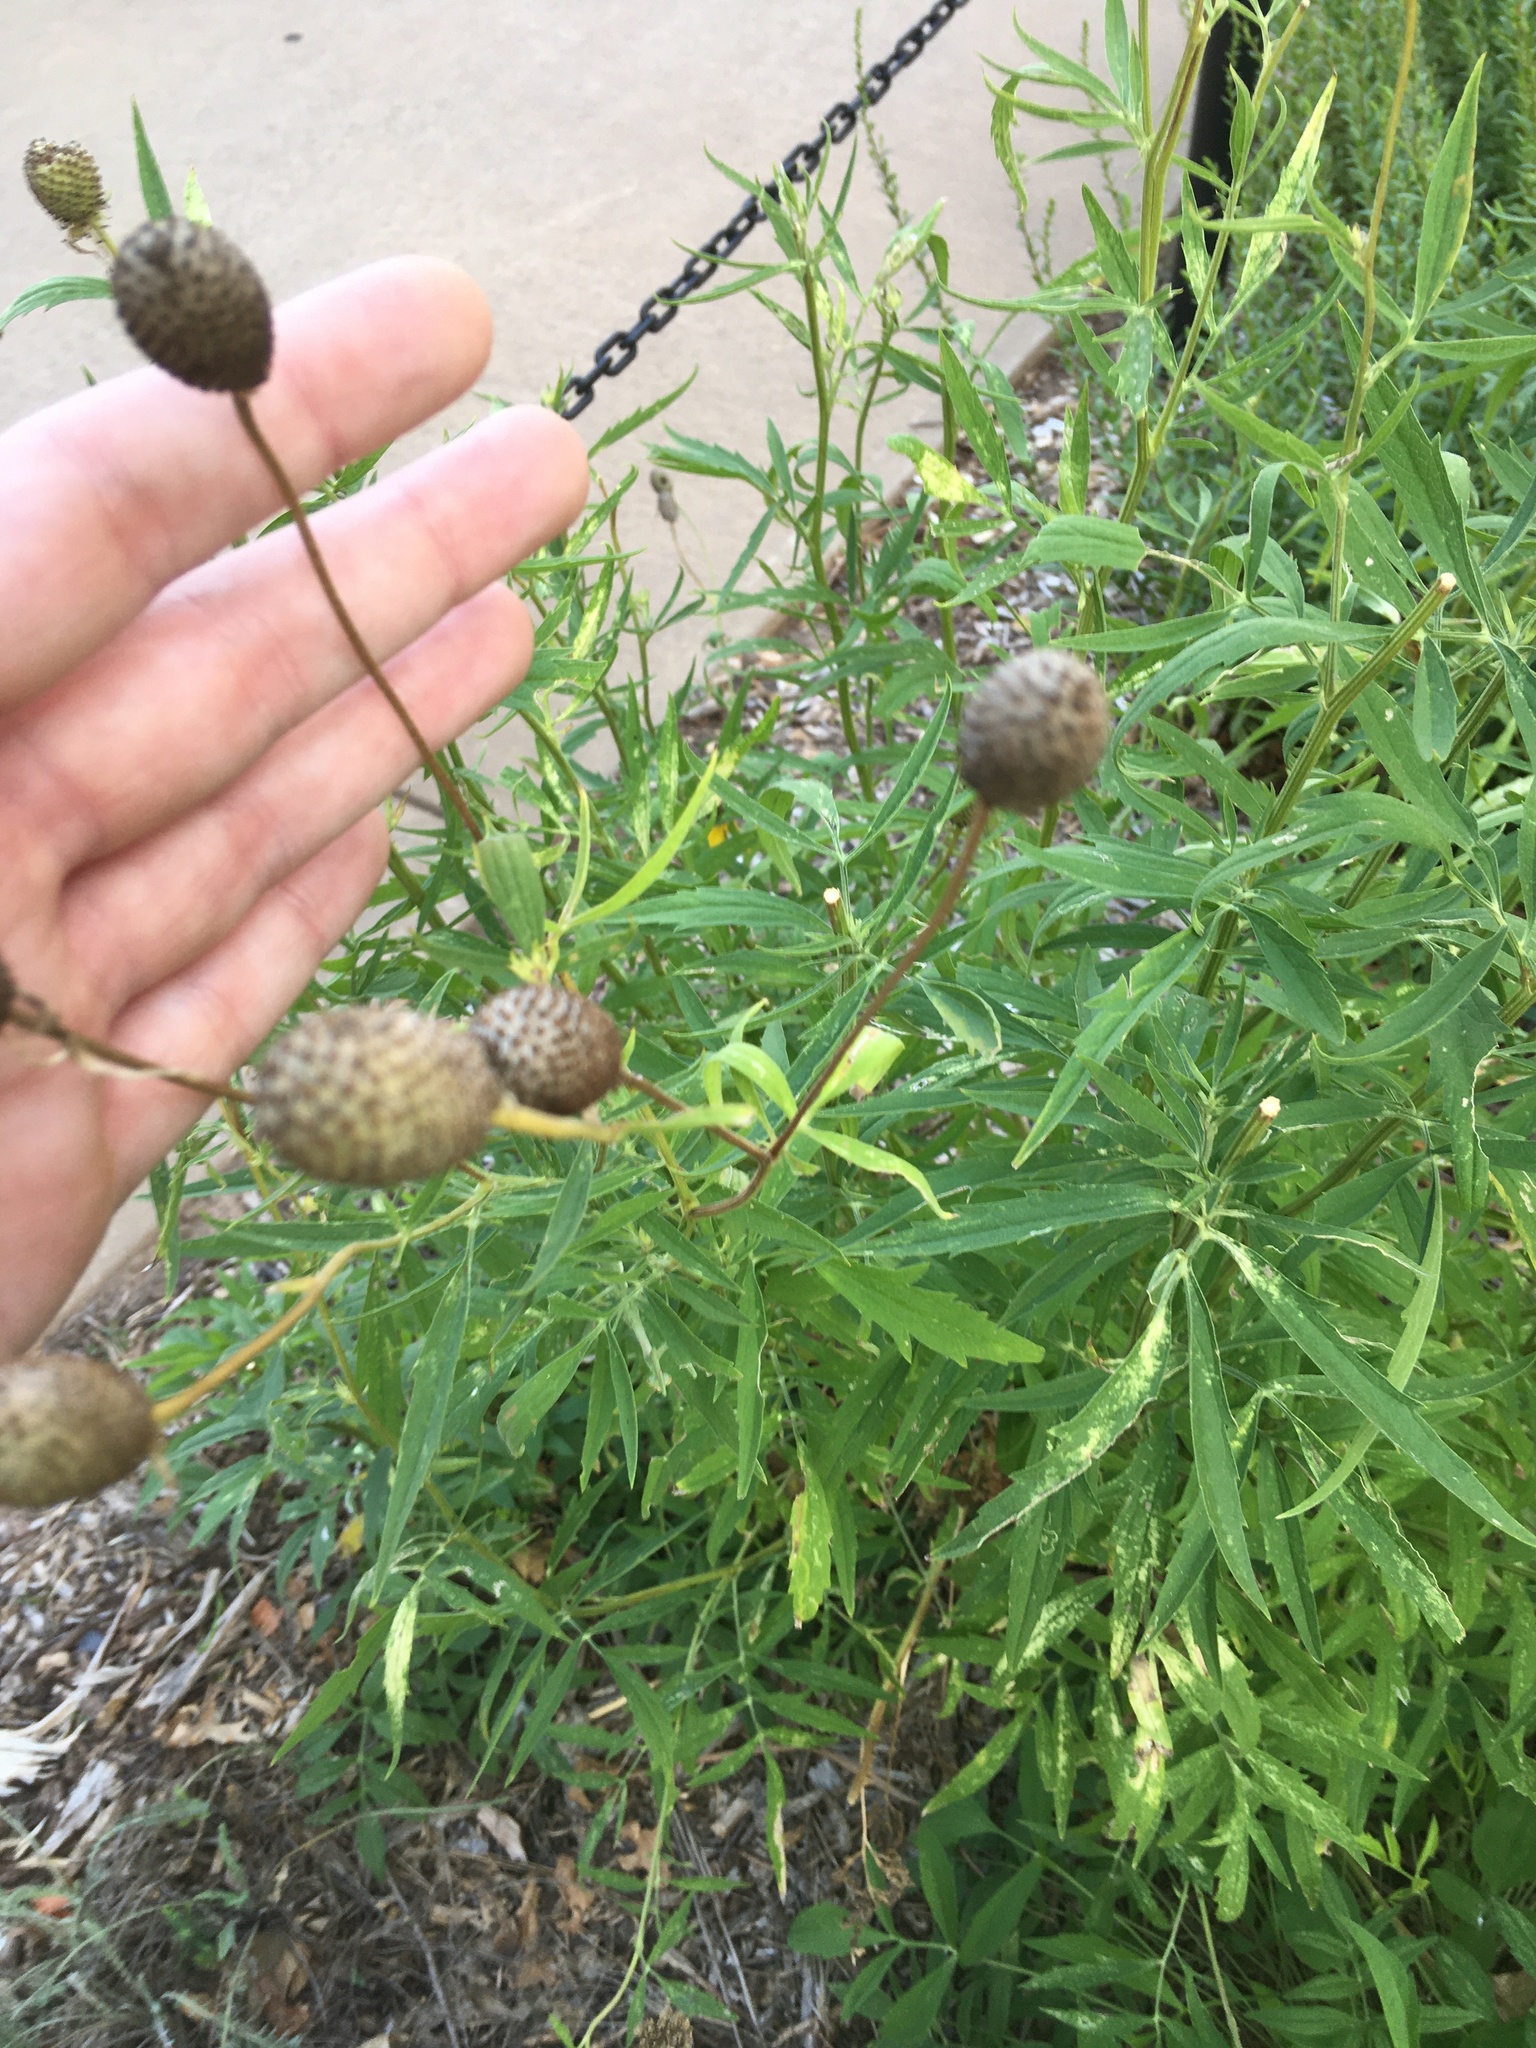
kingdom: Plantae
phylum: Tracheophyta
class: Magnoliopsida
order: Asterales
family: Asteraceae
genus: Ratibida
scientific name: Ratibida pinnata
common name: Drooping prairie-coneflower
